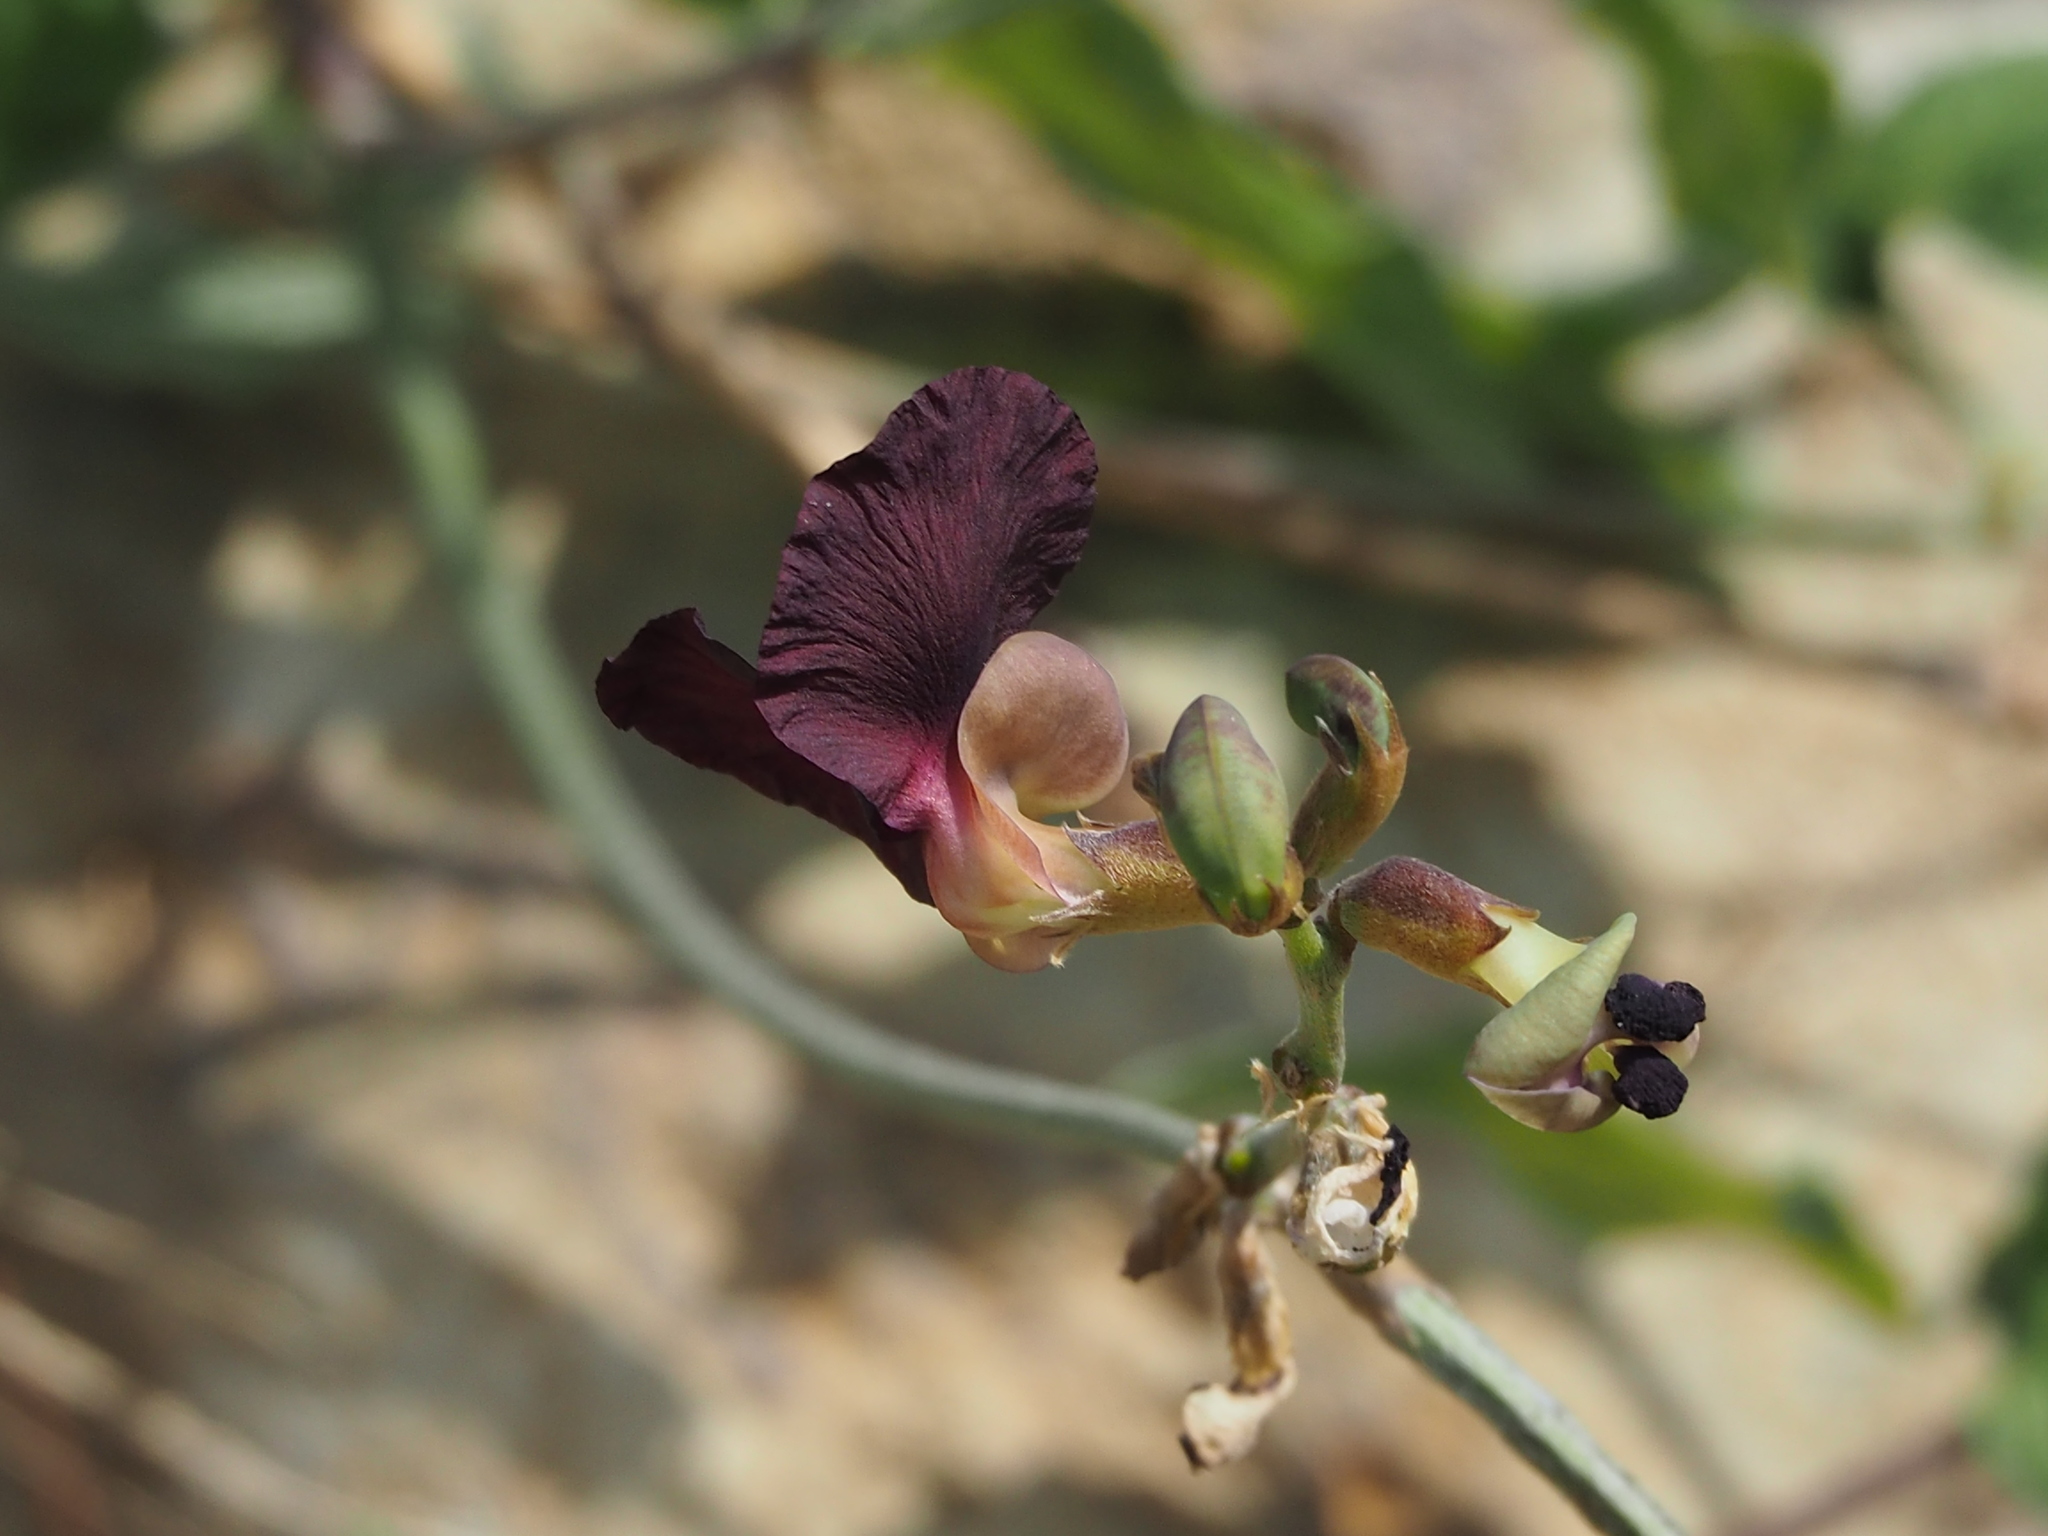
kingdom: Plantae
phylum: Tracheophyta
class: Magnoliopsida
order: Fabales
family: Fabaceae
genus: Macroptilium
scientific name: Macroptilium atropurpureum
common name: Purple bushbean
